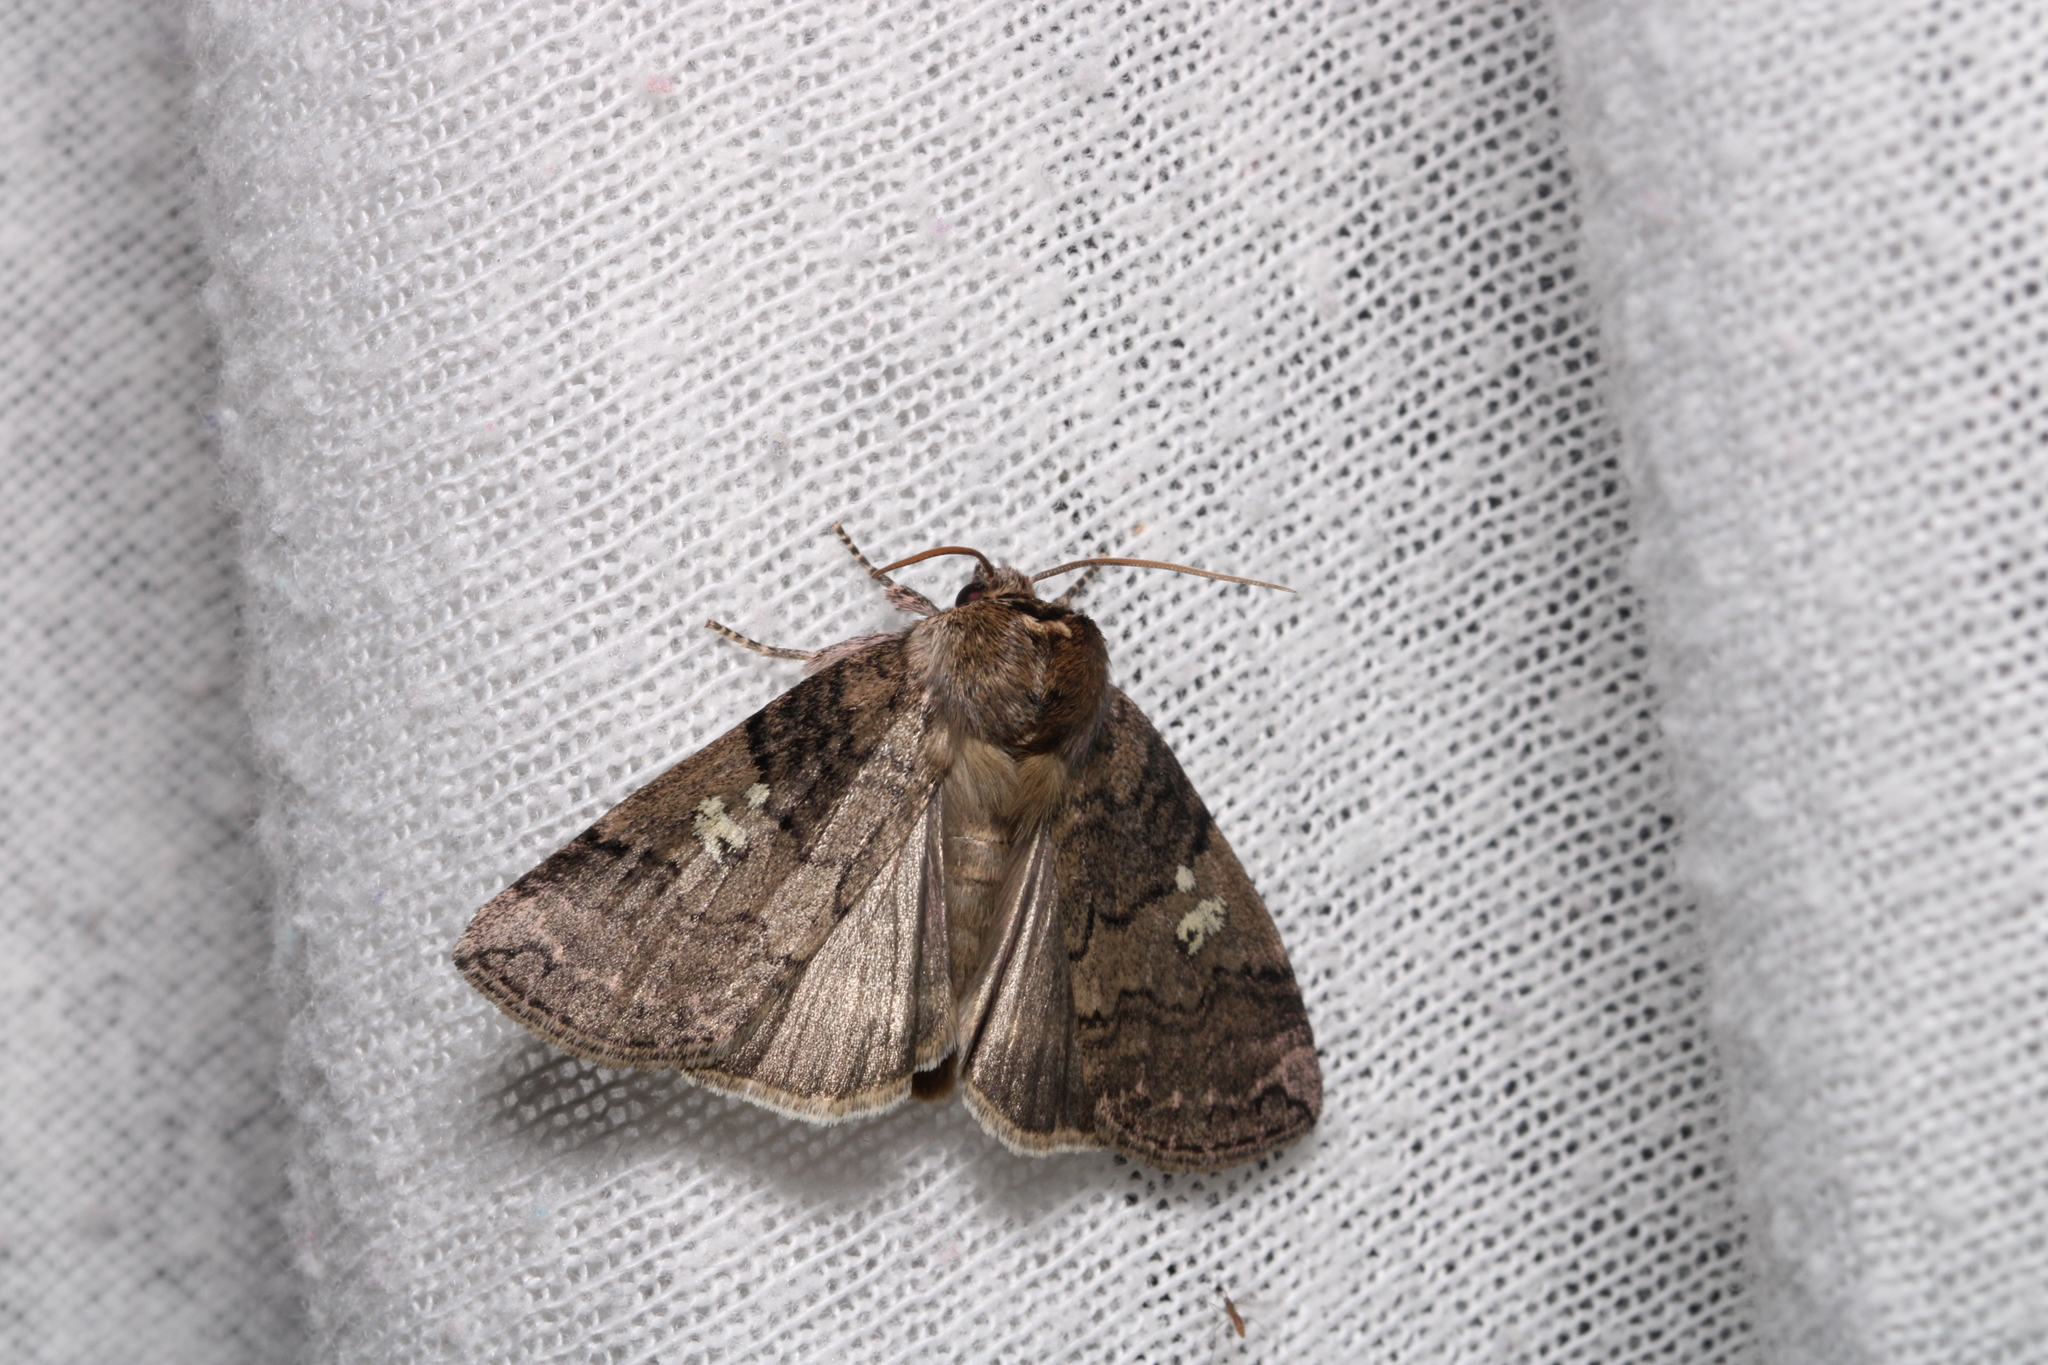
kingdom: Animalia
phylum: Arthropoda
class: Insecta
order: Lepidoptera
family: Drepanidae
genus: Tethea
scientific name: Tethea or
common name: Poplar lutestring
